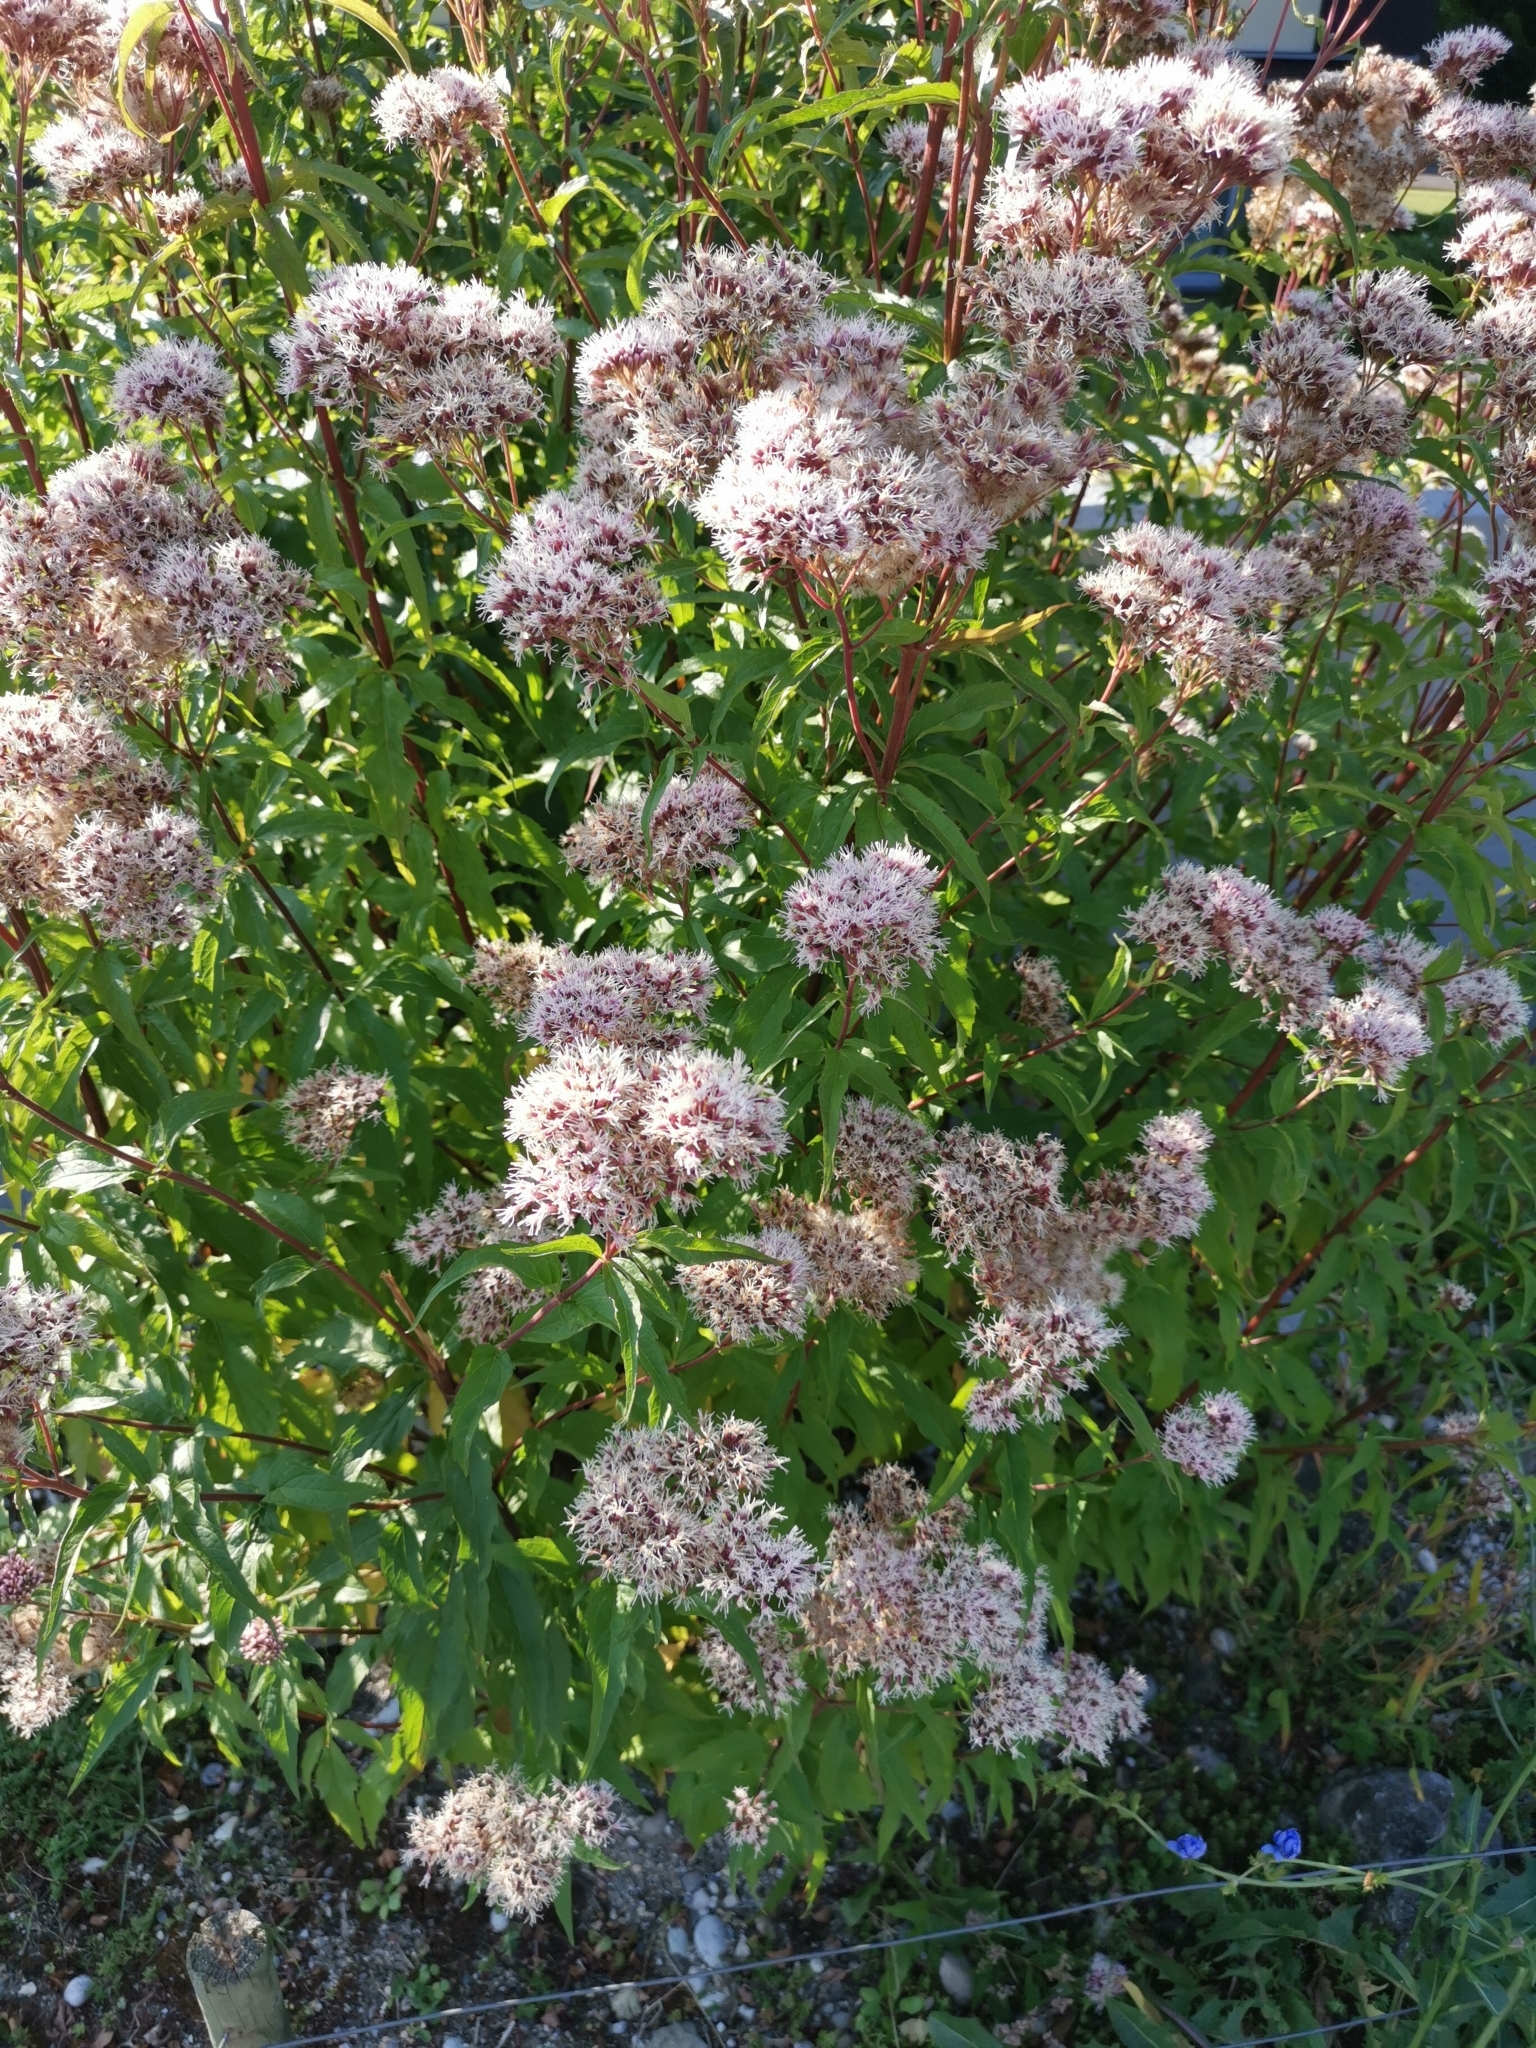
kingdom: Plantae
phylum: Tracheophyta
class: Magnoliopsida
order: Asterales
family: Asteraceae
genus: Eupatorium
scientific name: Eupatorium cannabinum
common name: Hemp-agrimony
